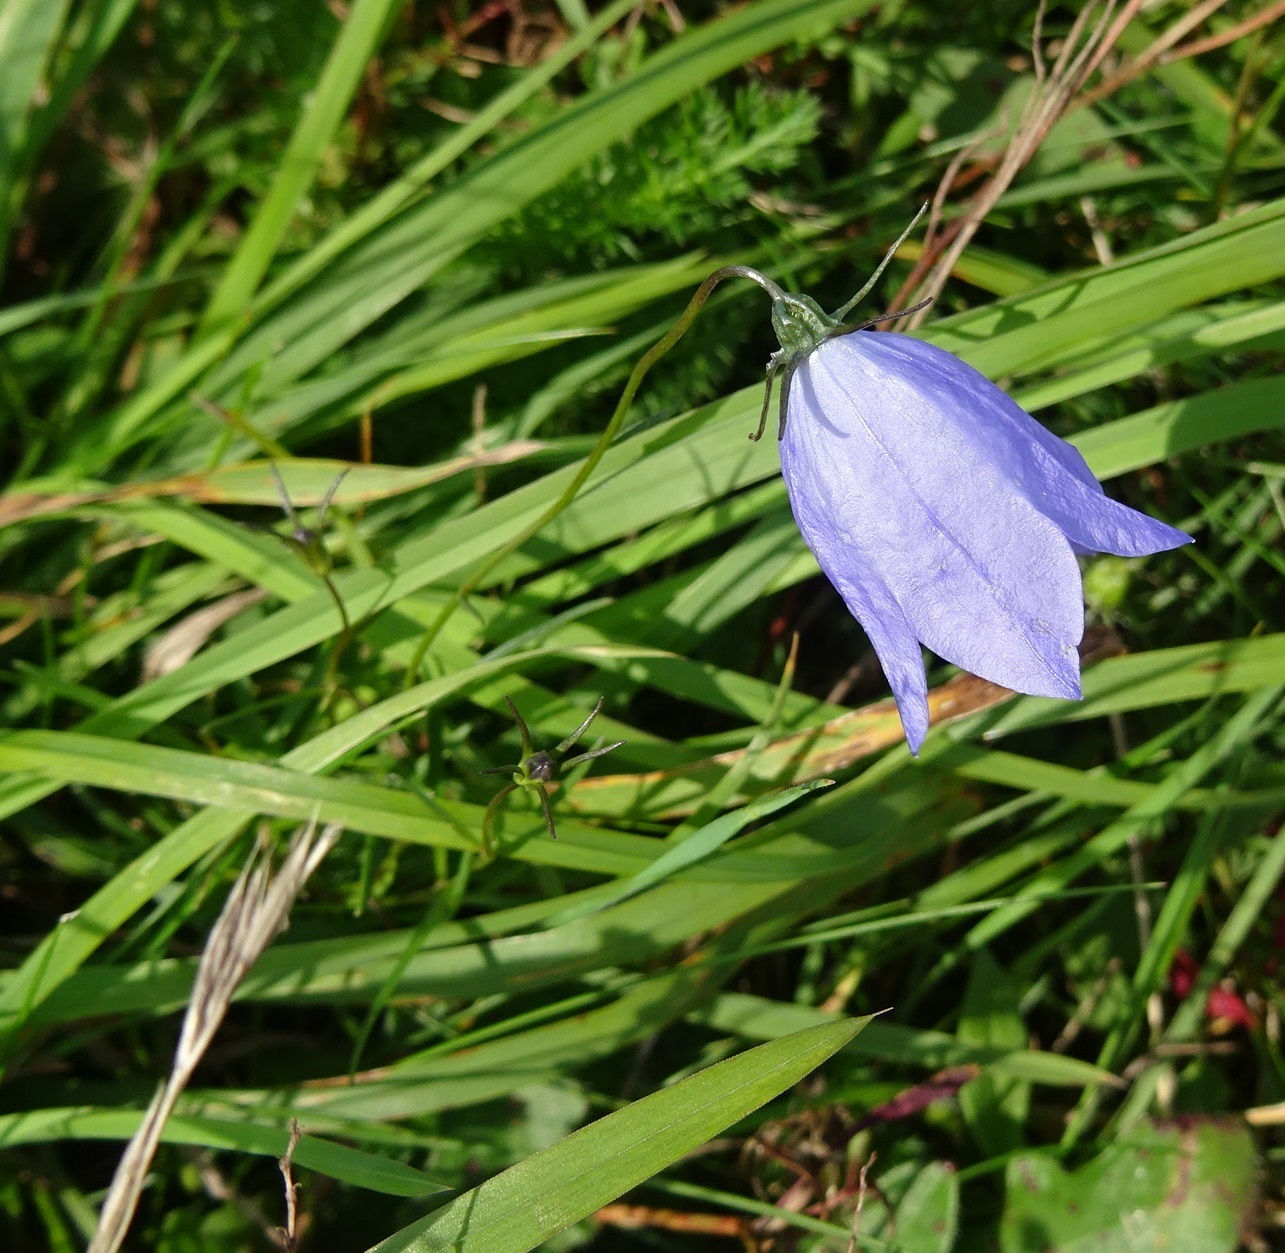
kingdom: Plantae
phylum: Tracheophyta
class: Magnoliopsida
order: Asterales
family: Campanulaceae
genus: Campanula
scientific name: Campanula rotundifolia
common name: Harebell
